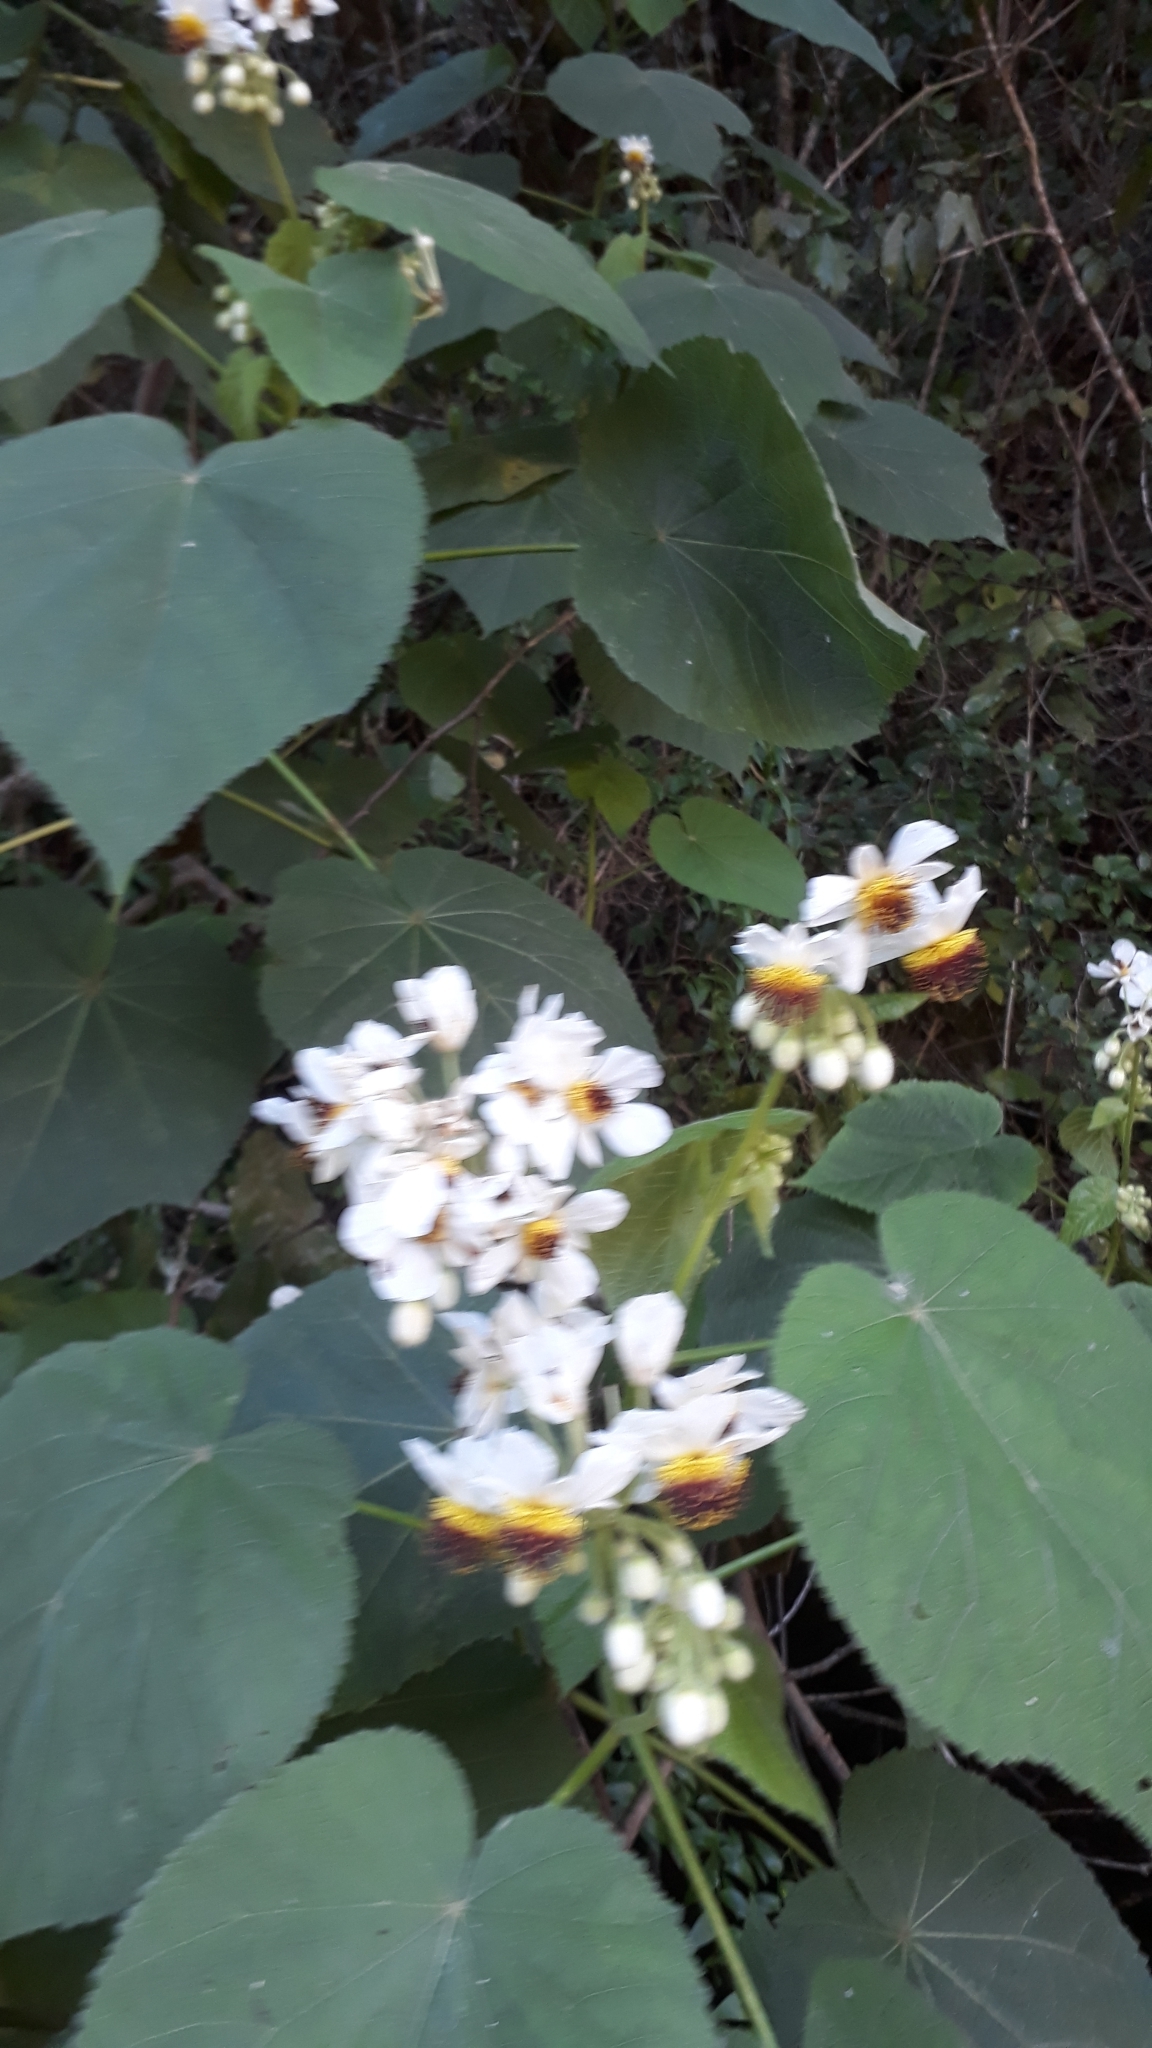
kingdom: Plantae
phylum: Tracheophyta
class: Magnoliopsida
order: Malvales
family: Malvaceae
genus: Sparrmannia
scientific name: Sparrmannia africana
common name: African-hemp
